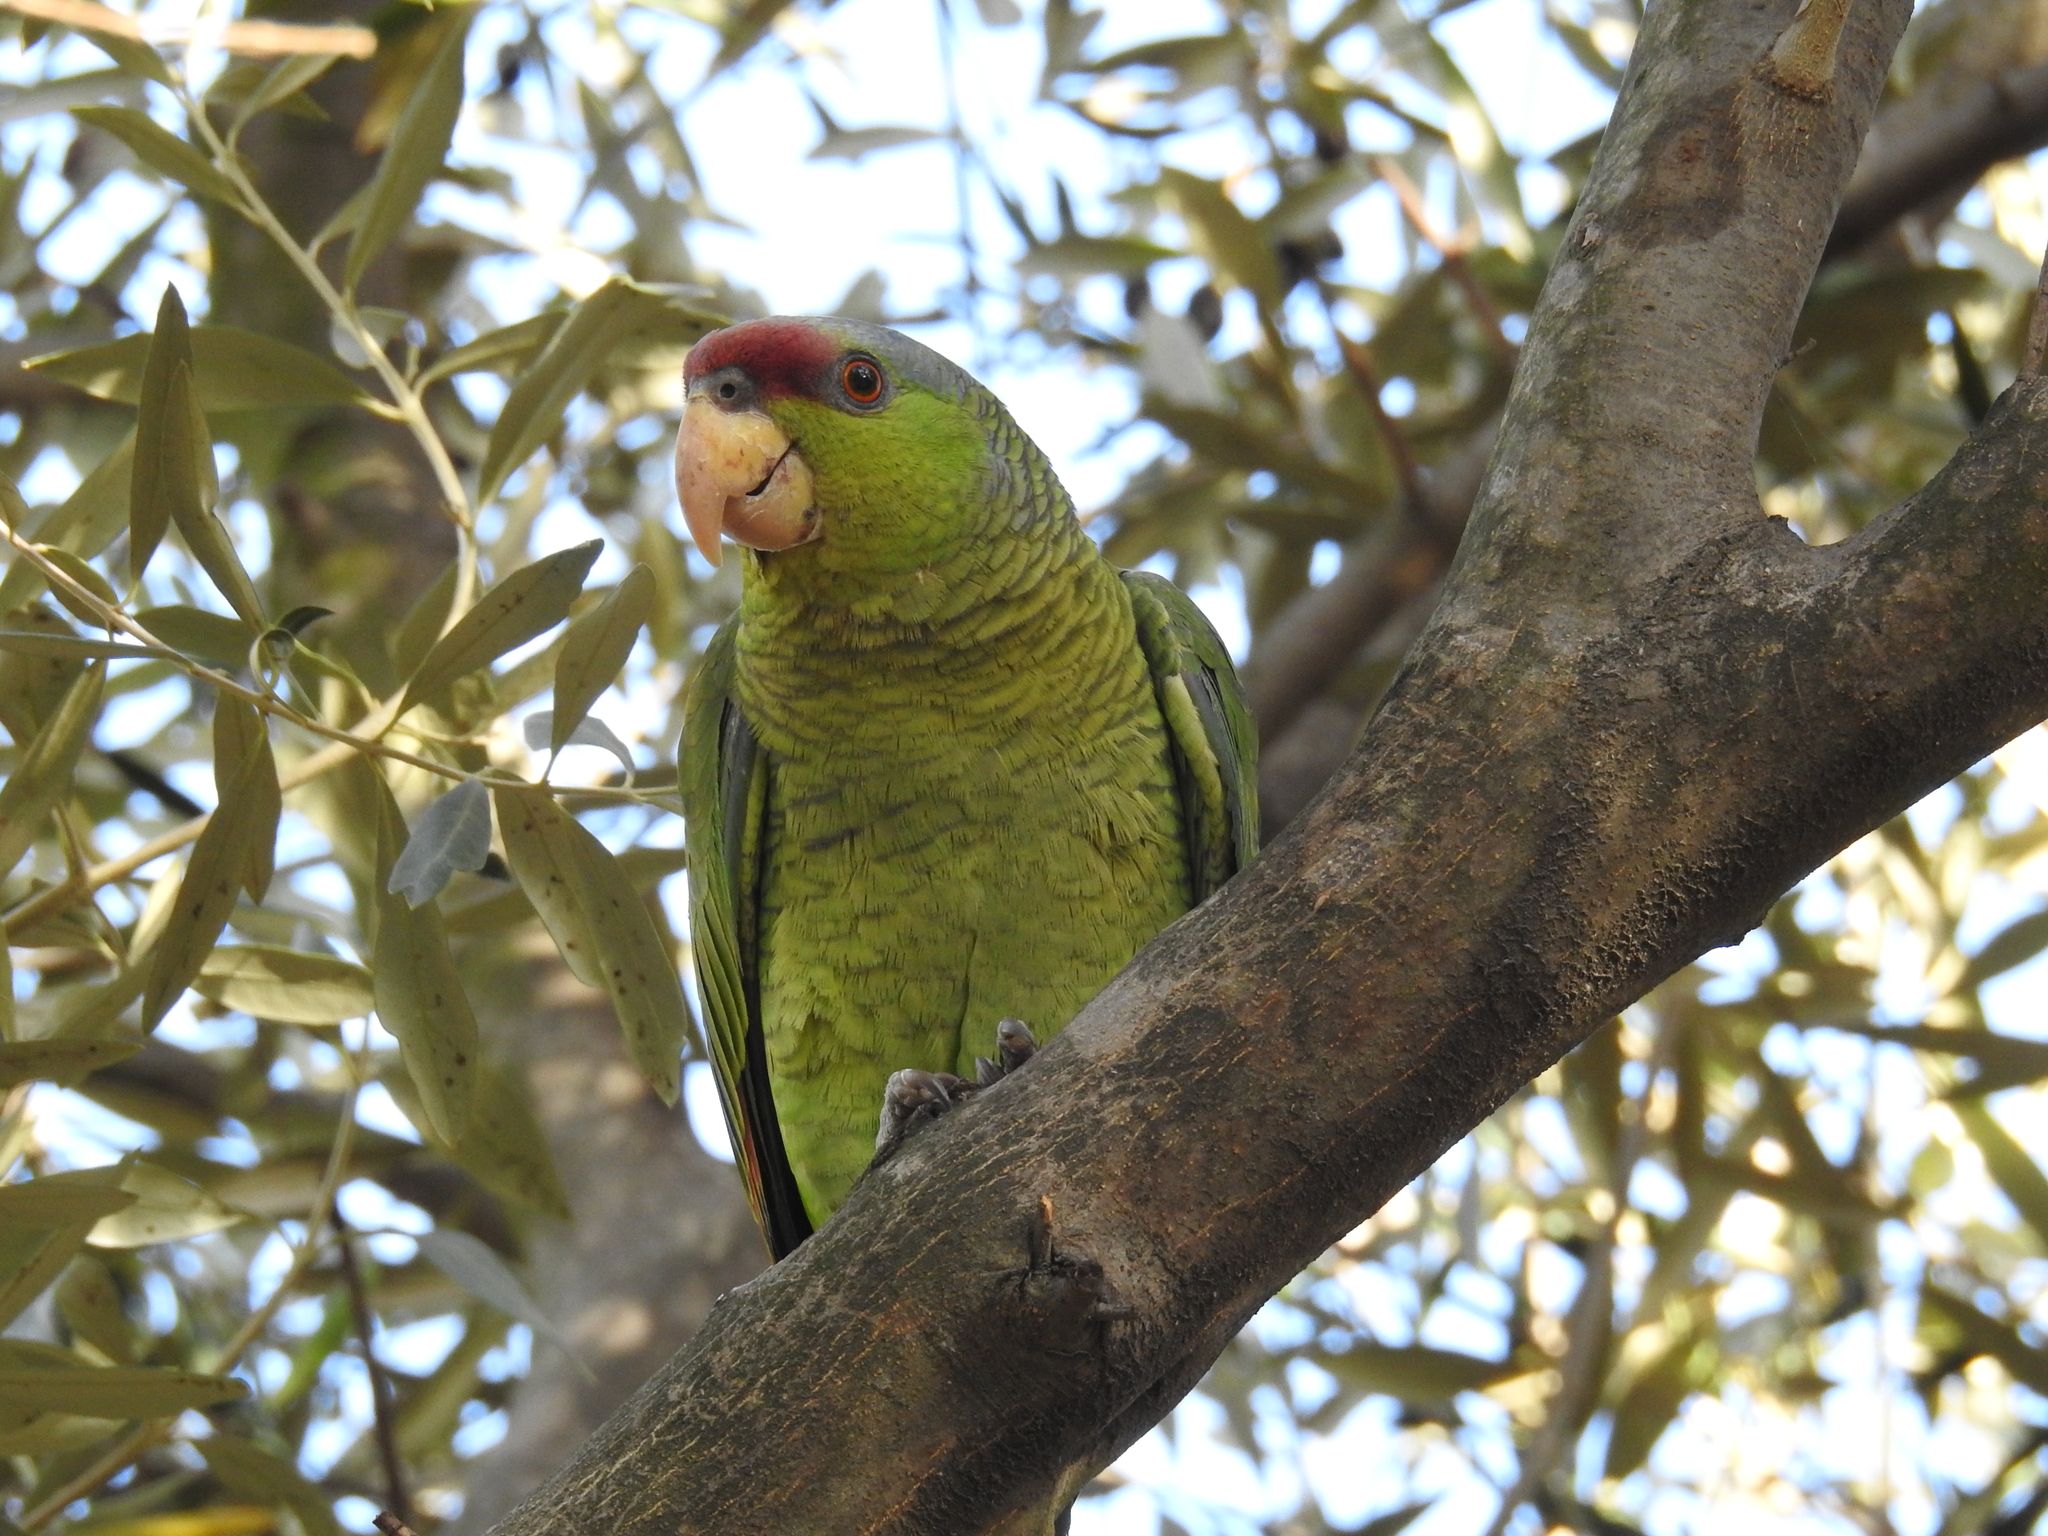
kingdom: Animalia
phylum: Chordata
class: Aves
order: Psittaciformes
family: Psittacidae
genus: Amazona
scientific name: Amazona finschi
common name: Lilac-crowned amazon
